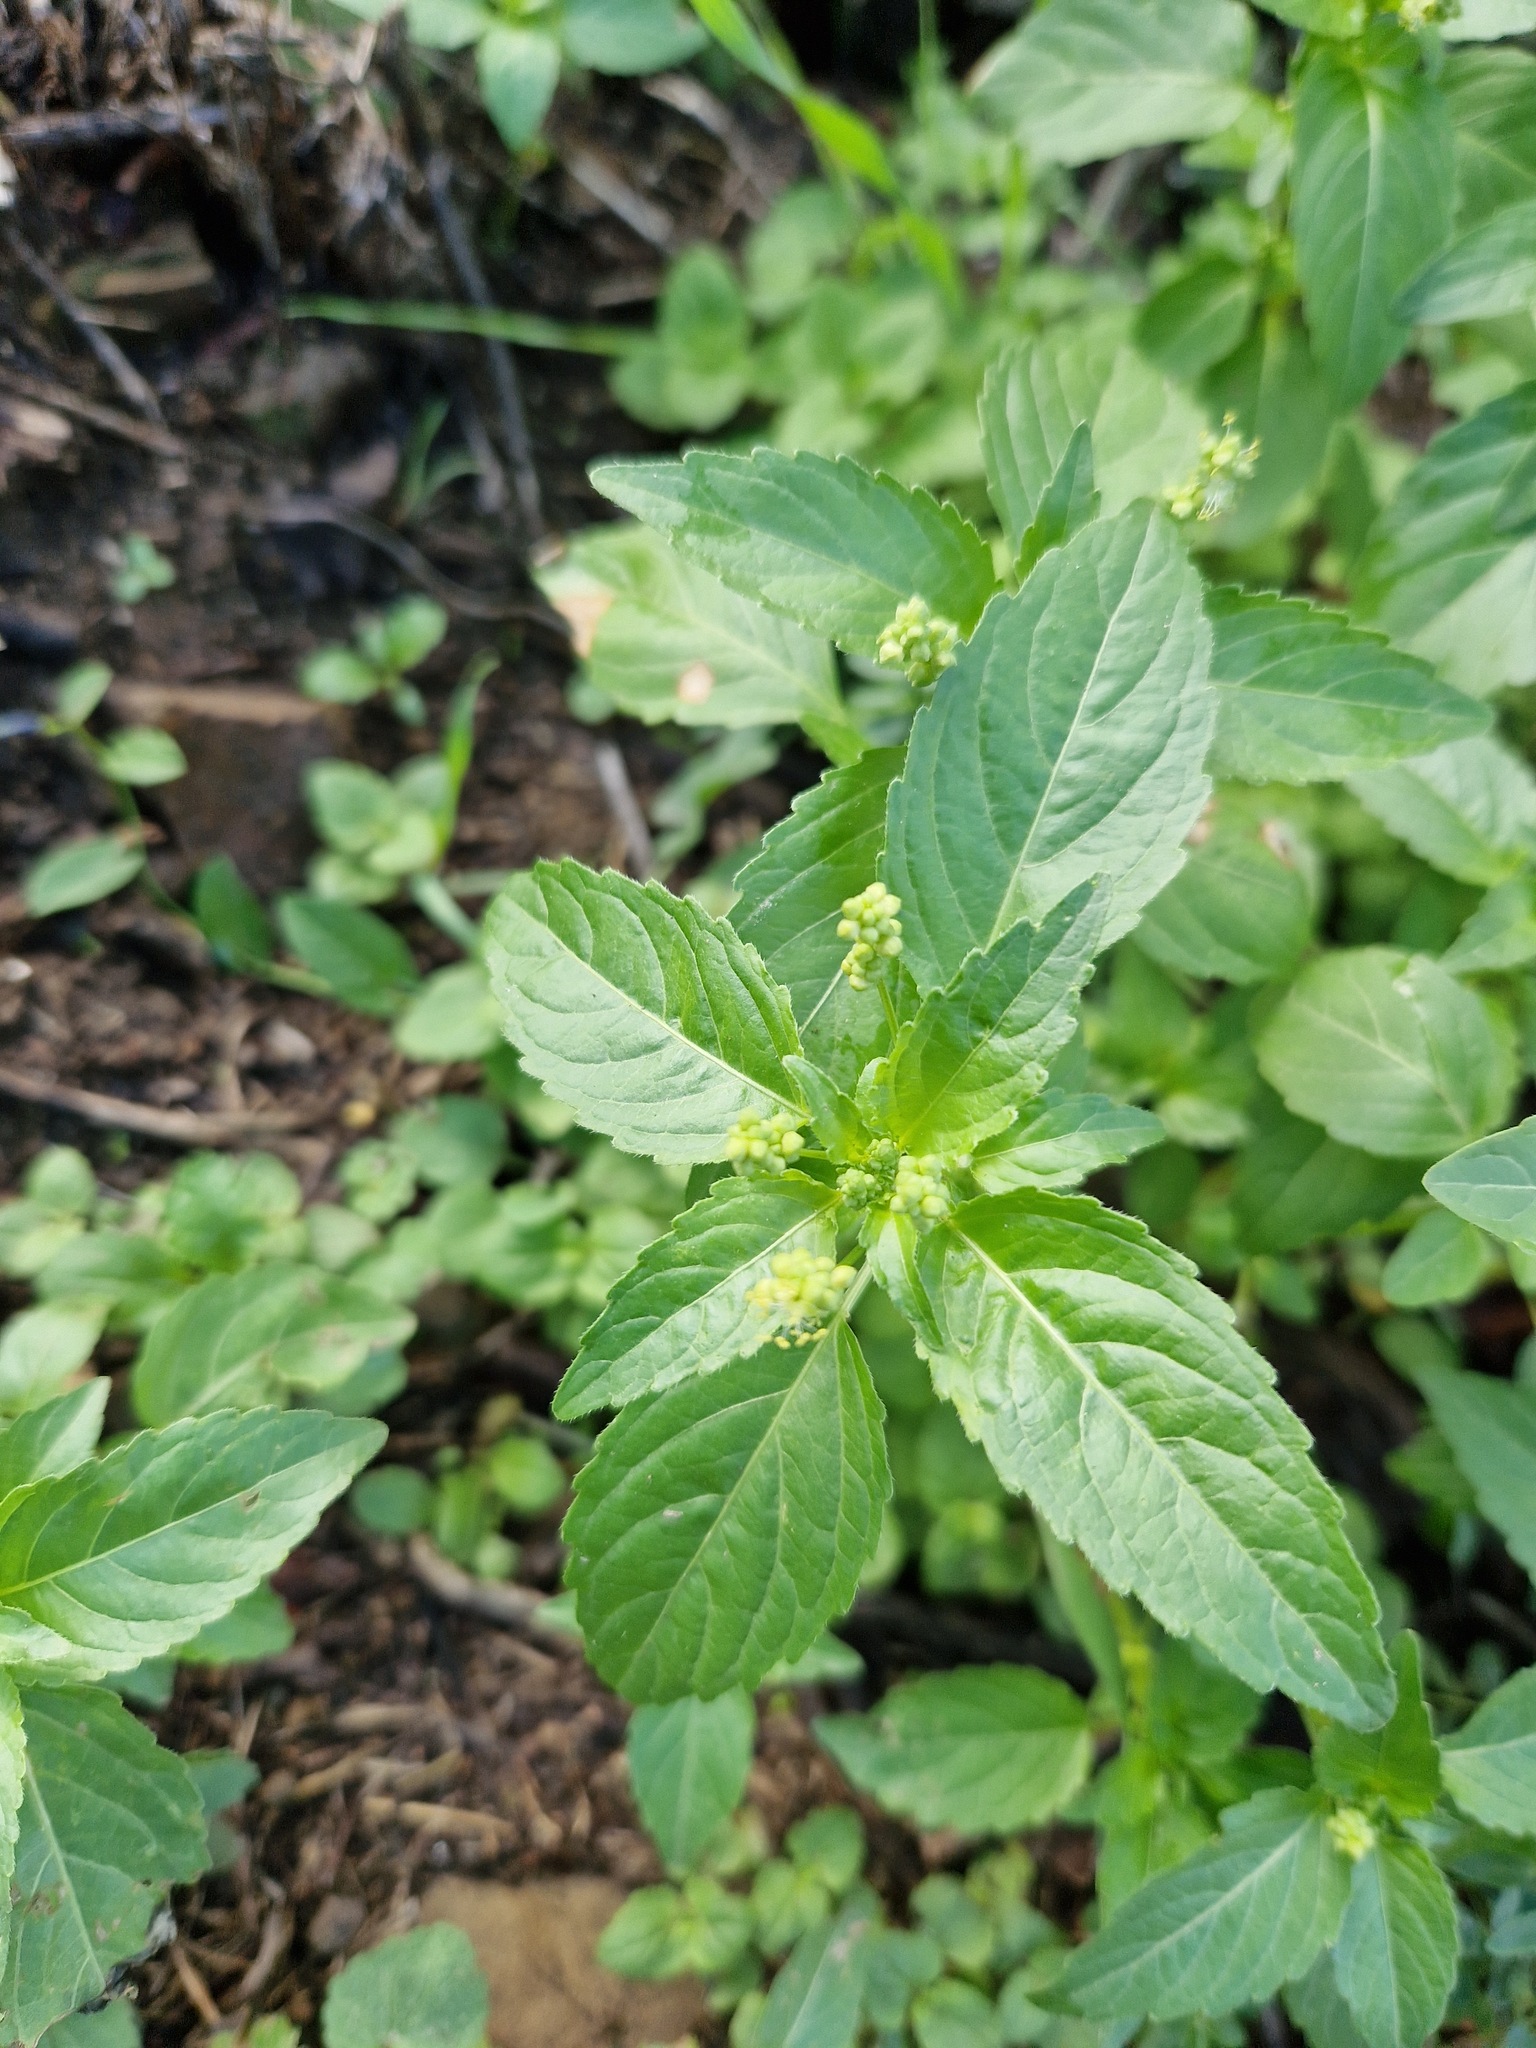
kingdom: Plantae
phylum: Tracheophyta
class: Magnoliopsida
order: Malpighiales
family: Euphorbiaceae
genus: Mercurialis
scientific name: Mercurialis annua
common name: Annual mercury
